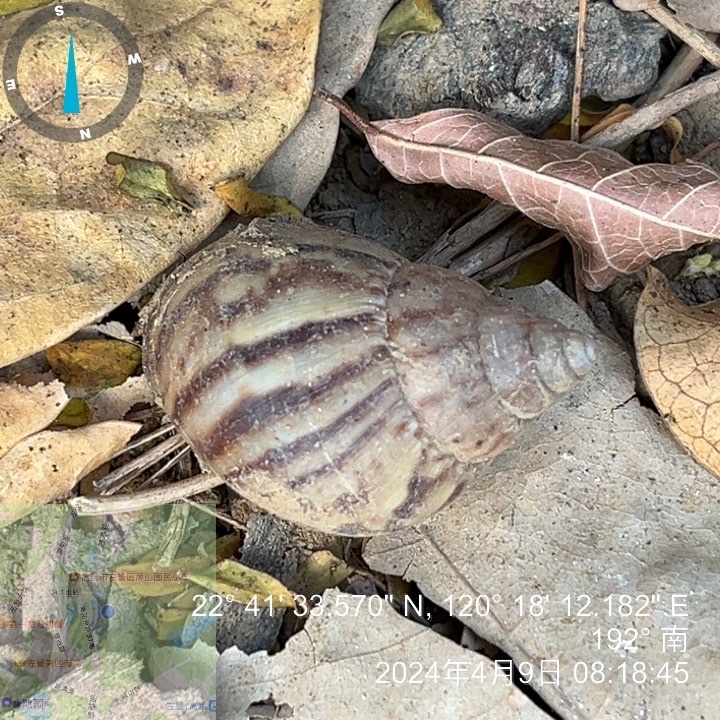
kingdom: Animalia
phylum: Mollusca
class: Gastropoda
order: Stylommatophora
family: Achatinidae
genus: Lissachatina
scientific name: Lissachatina fulica
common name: Giant african snail
